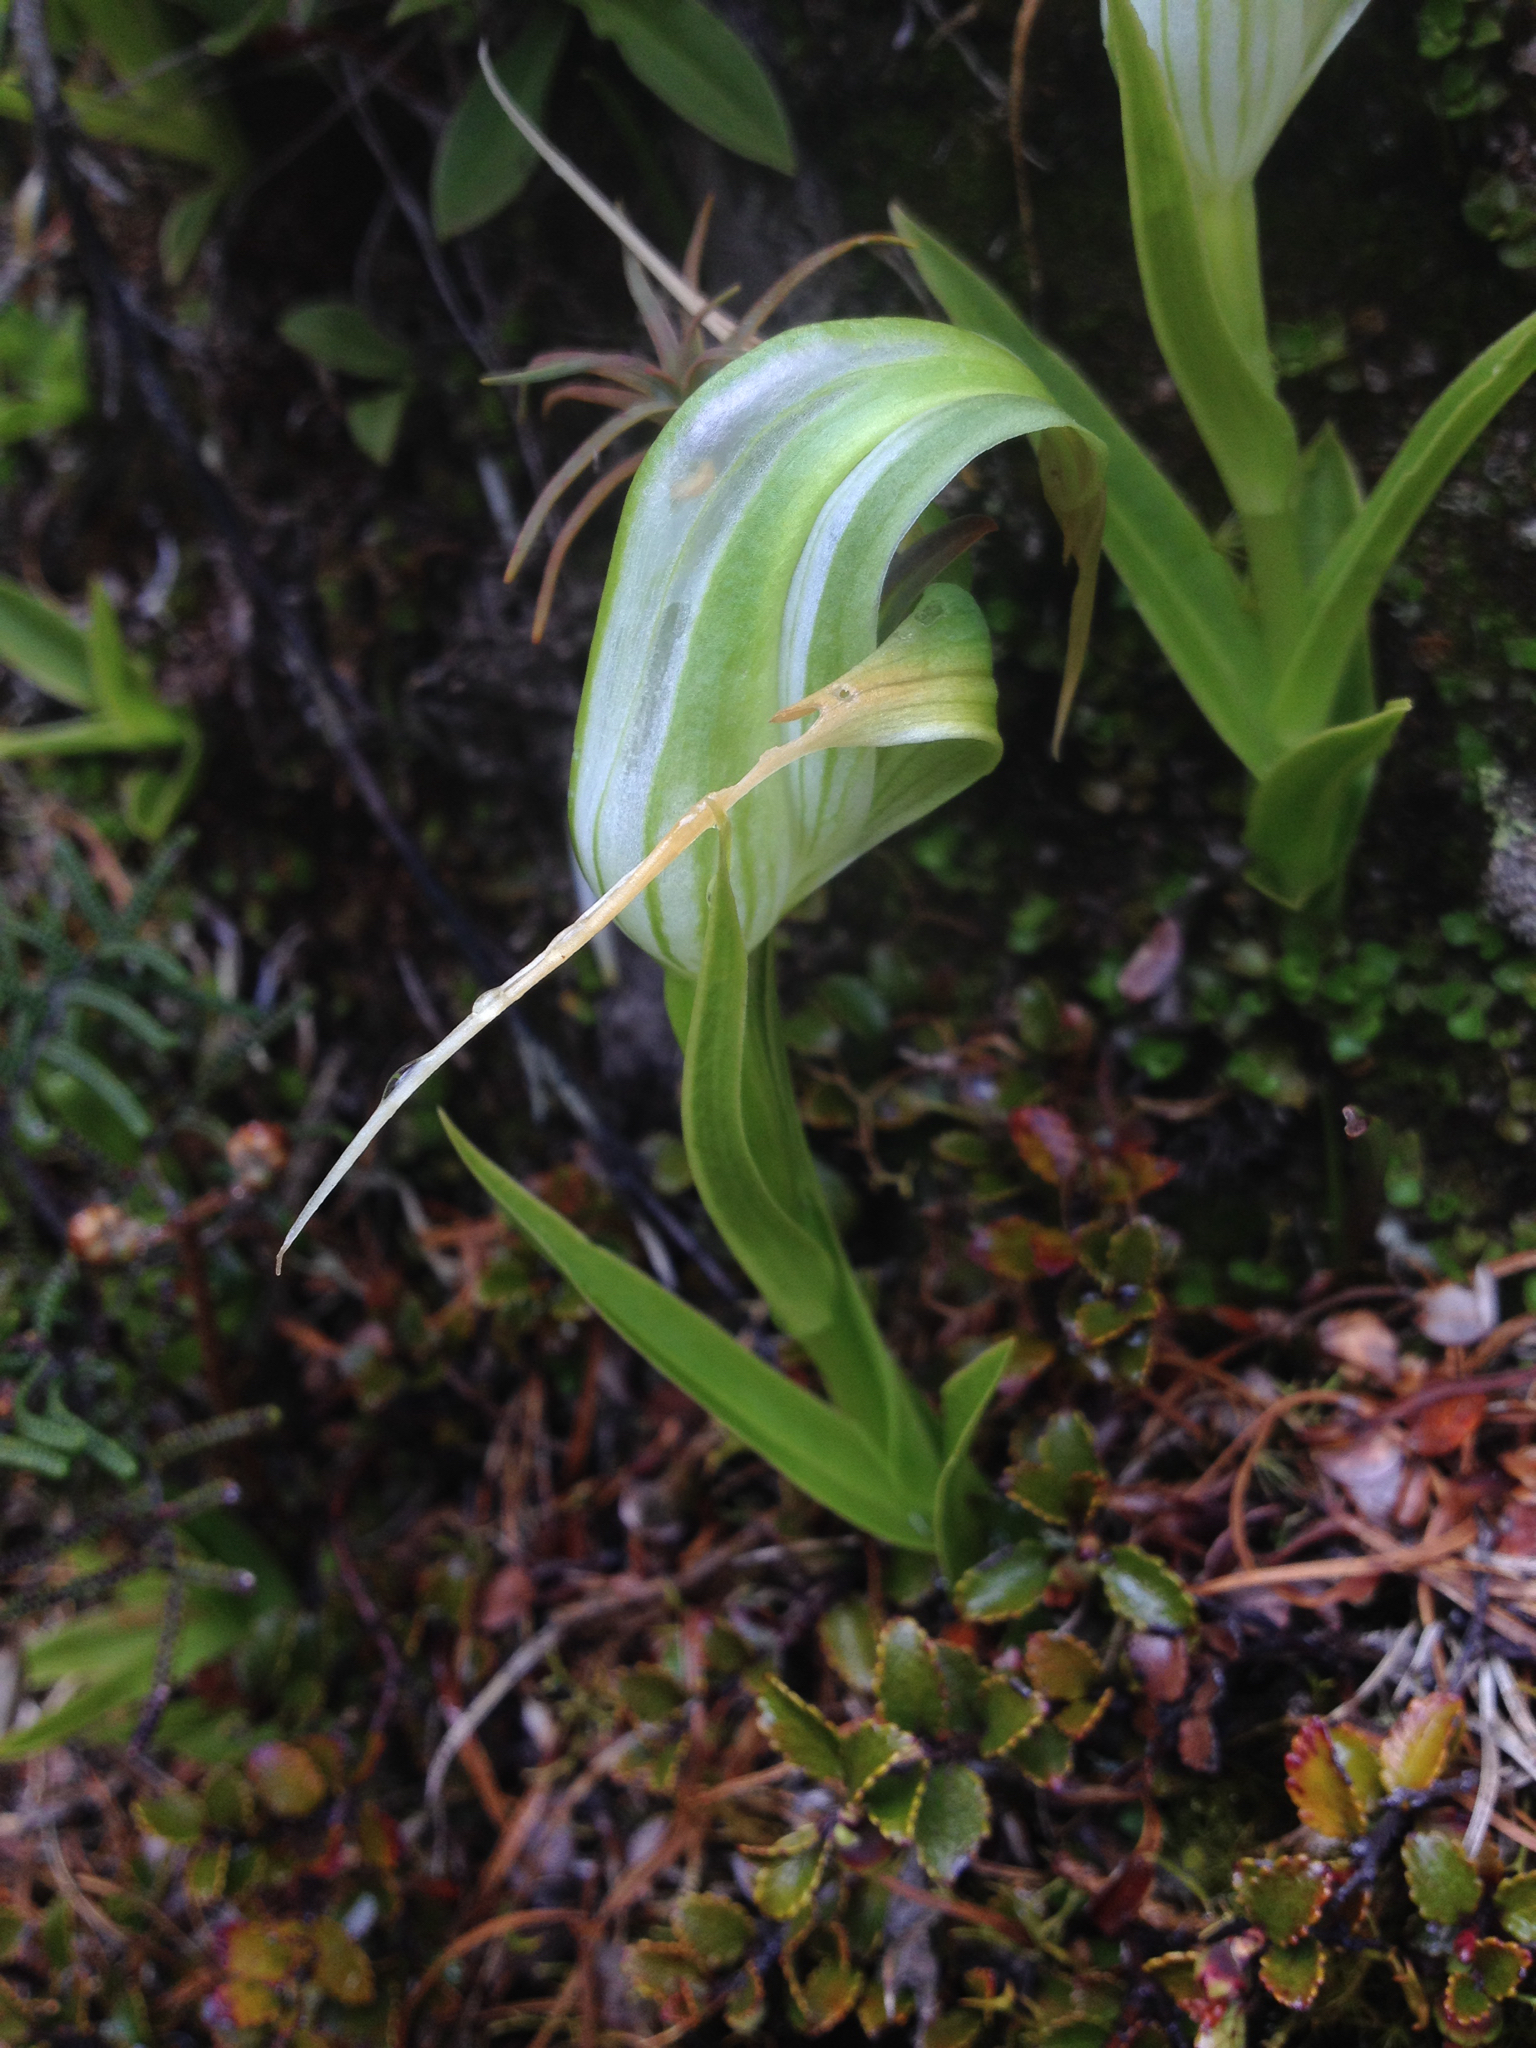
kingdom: Plantae
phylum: Tracheophyta
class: Liliopsida
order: Asparagales
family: Orchidaceae
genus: Pterostylis
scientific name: Pterostylis patens
